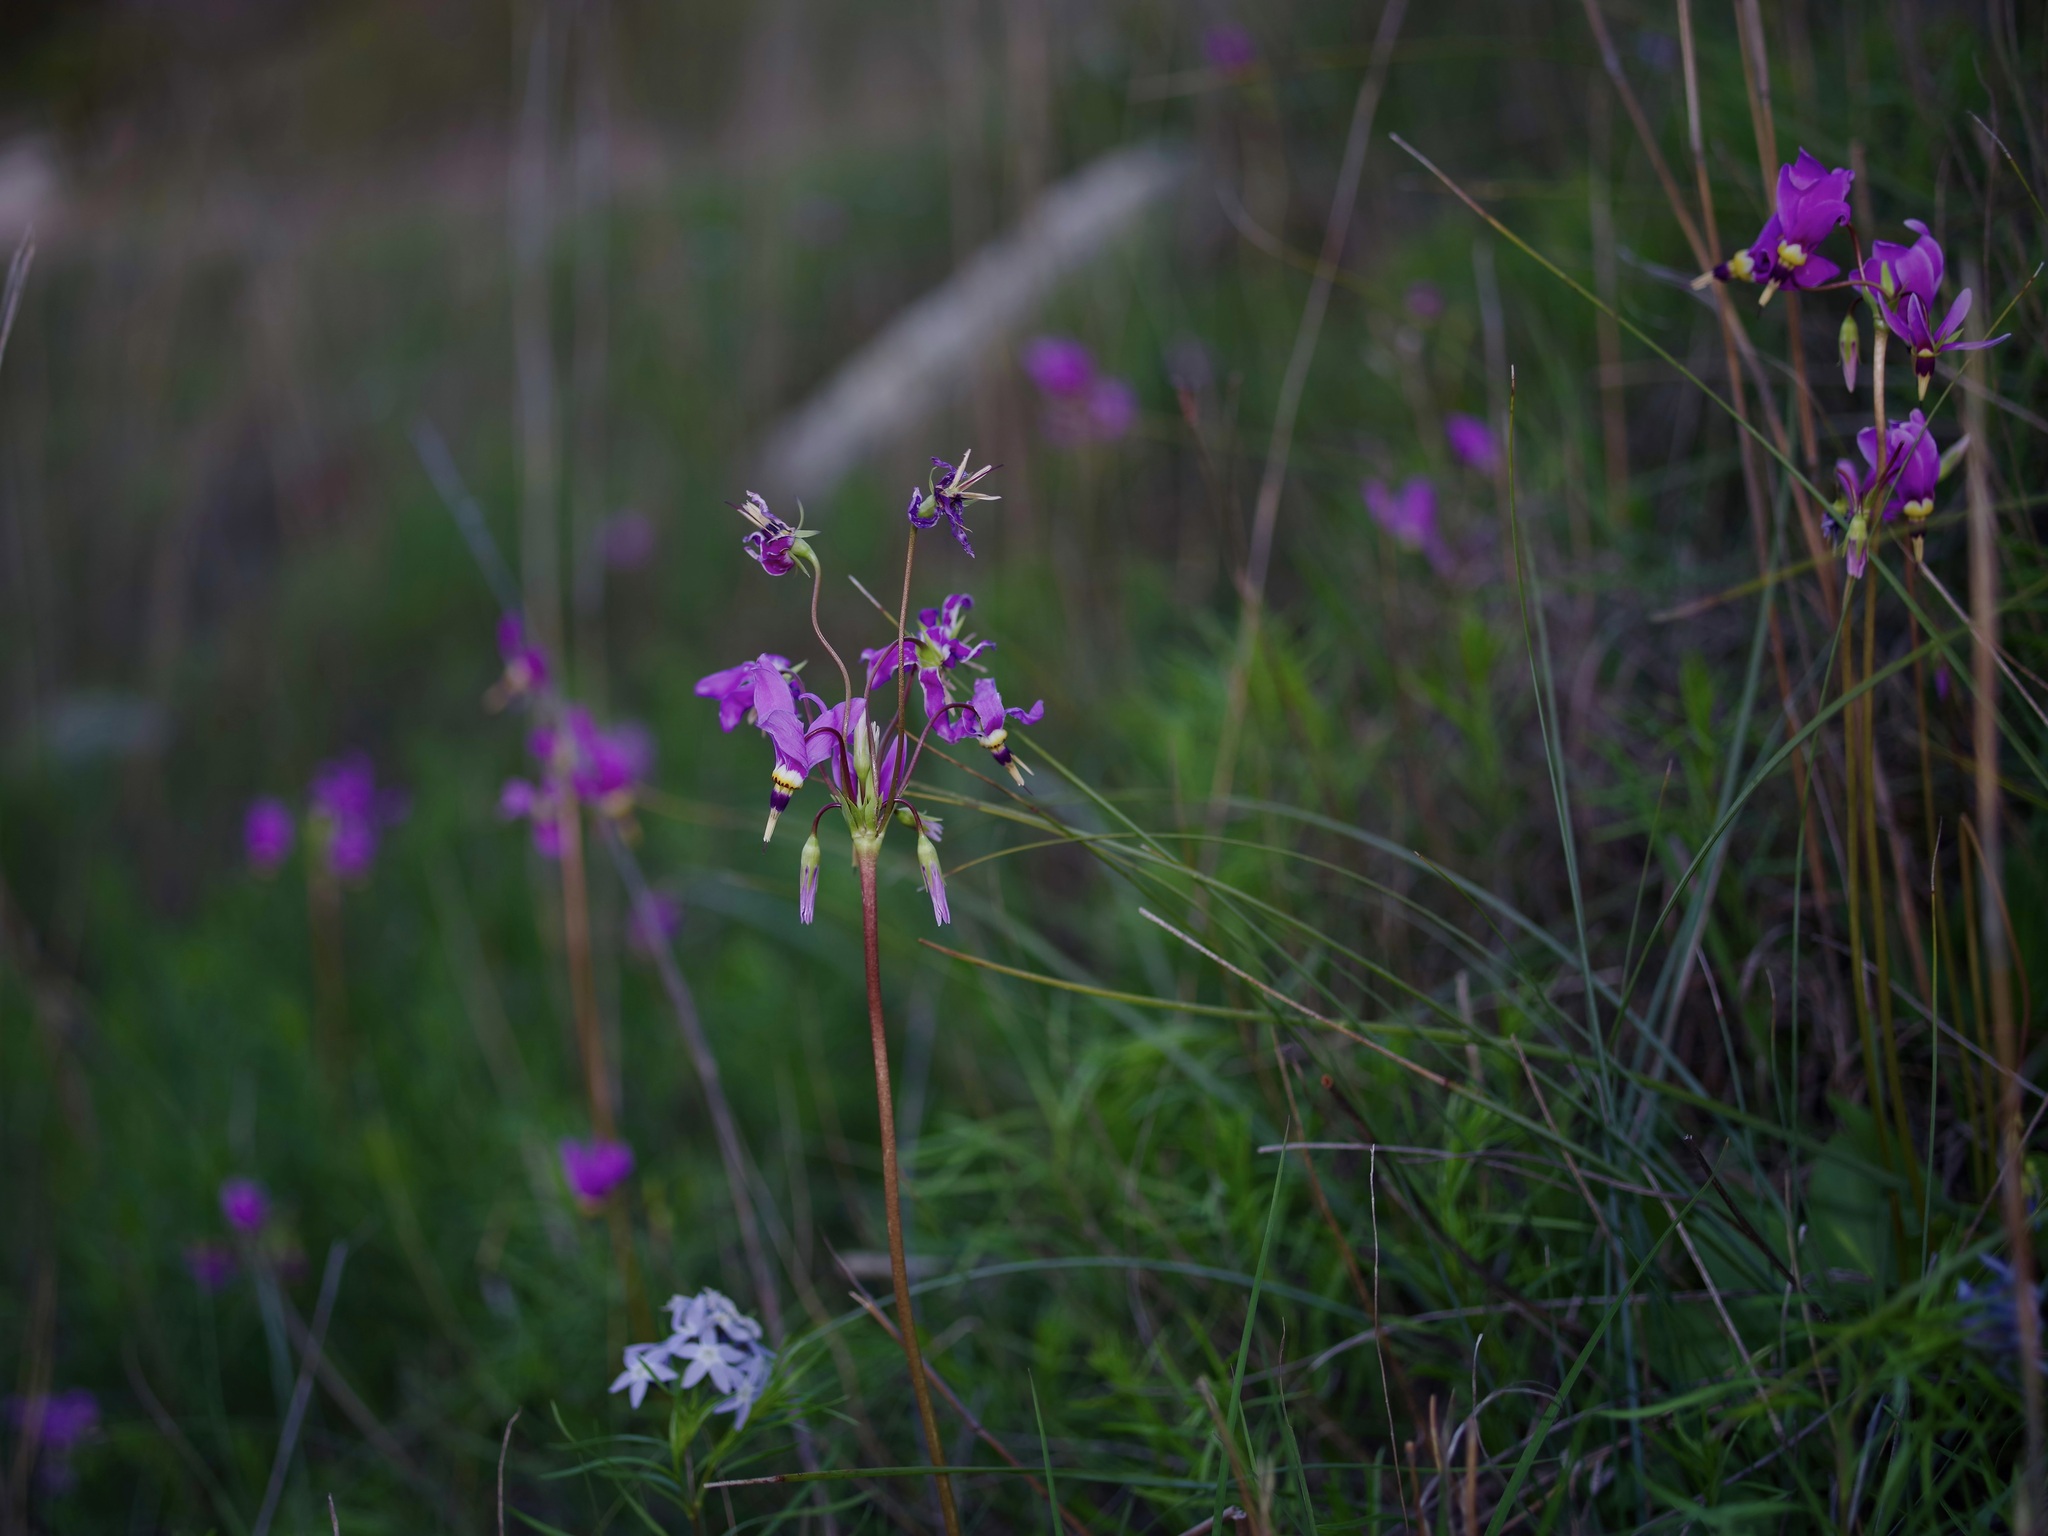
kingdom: Plantae
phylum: Tracheophyta
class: Magnoliopsida
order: Ericales
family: Primulaceae
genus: Dodecatheon
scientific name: Dodecatheon meadia
